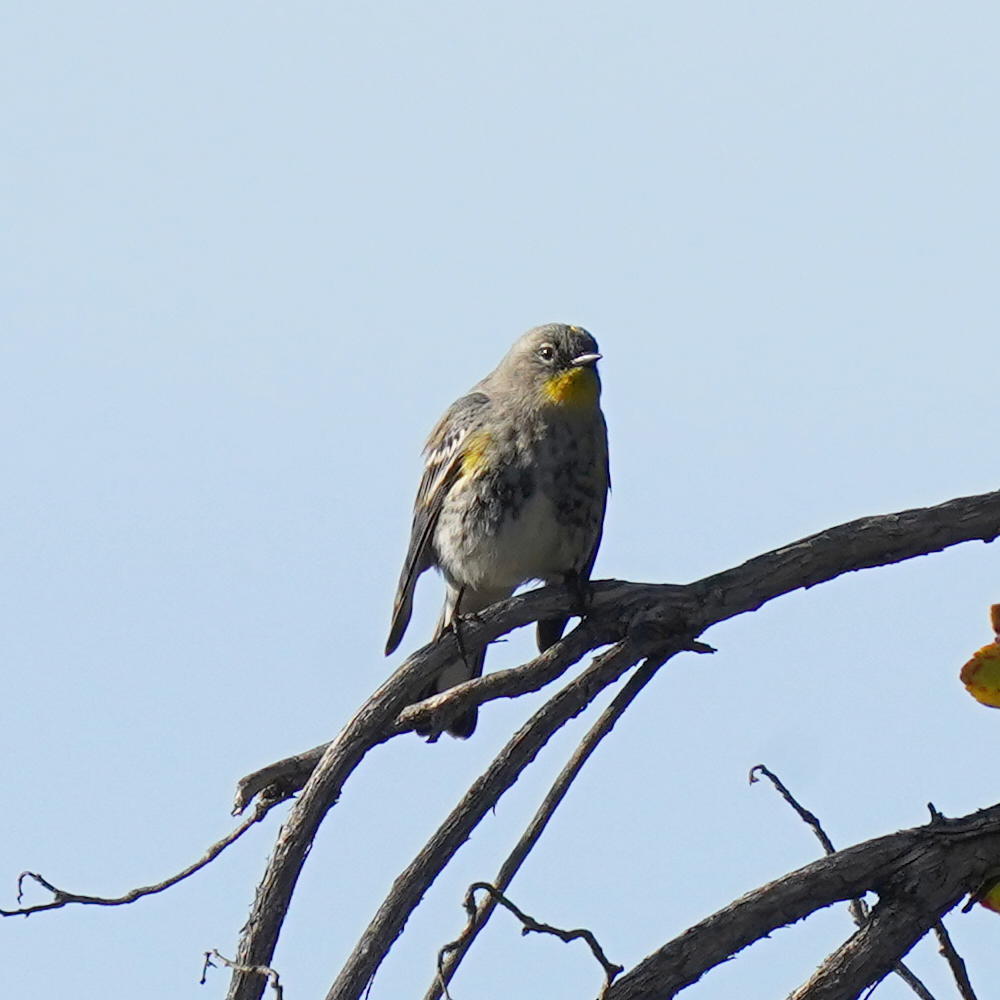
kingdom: Animalia
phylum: Chordata
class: Aves
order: Passeriformes
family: Parulidae
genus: Setophaga
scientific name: Setophaga coronata
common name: Myrtle warbler
